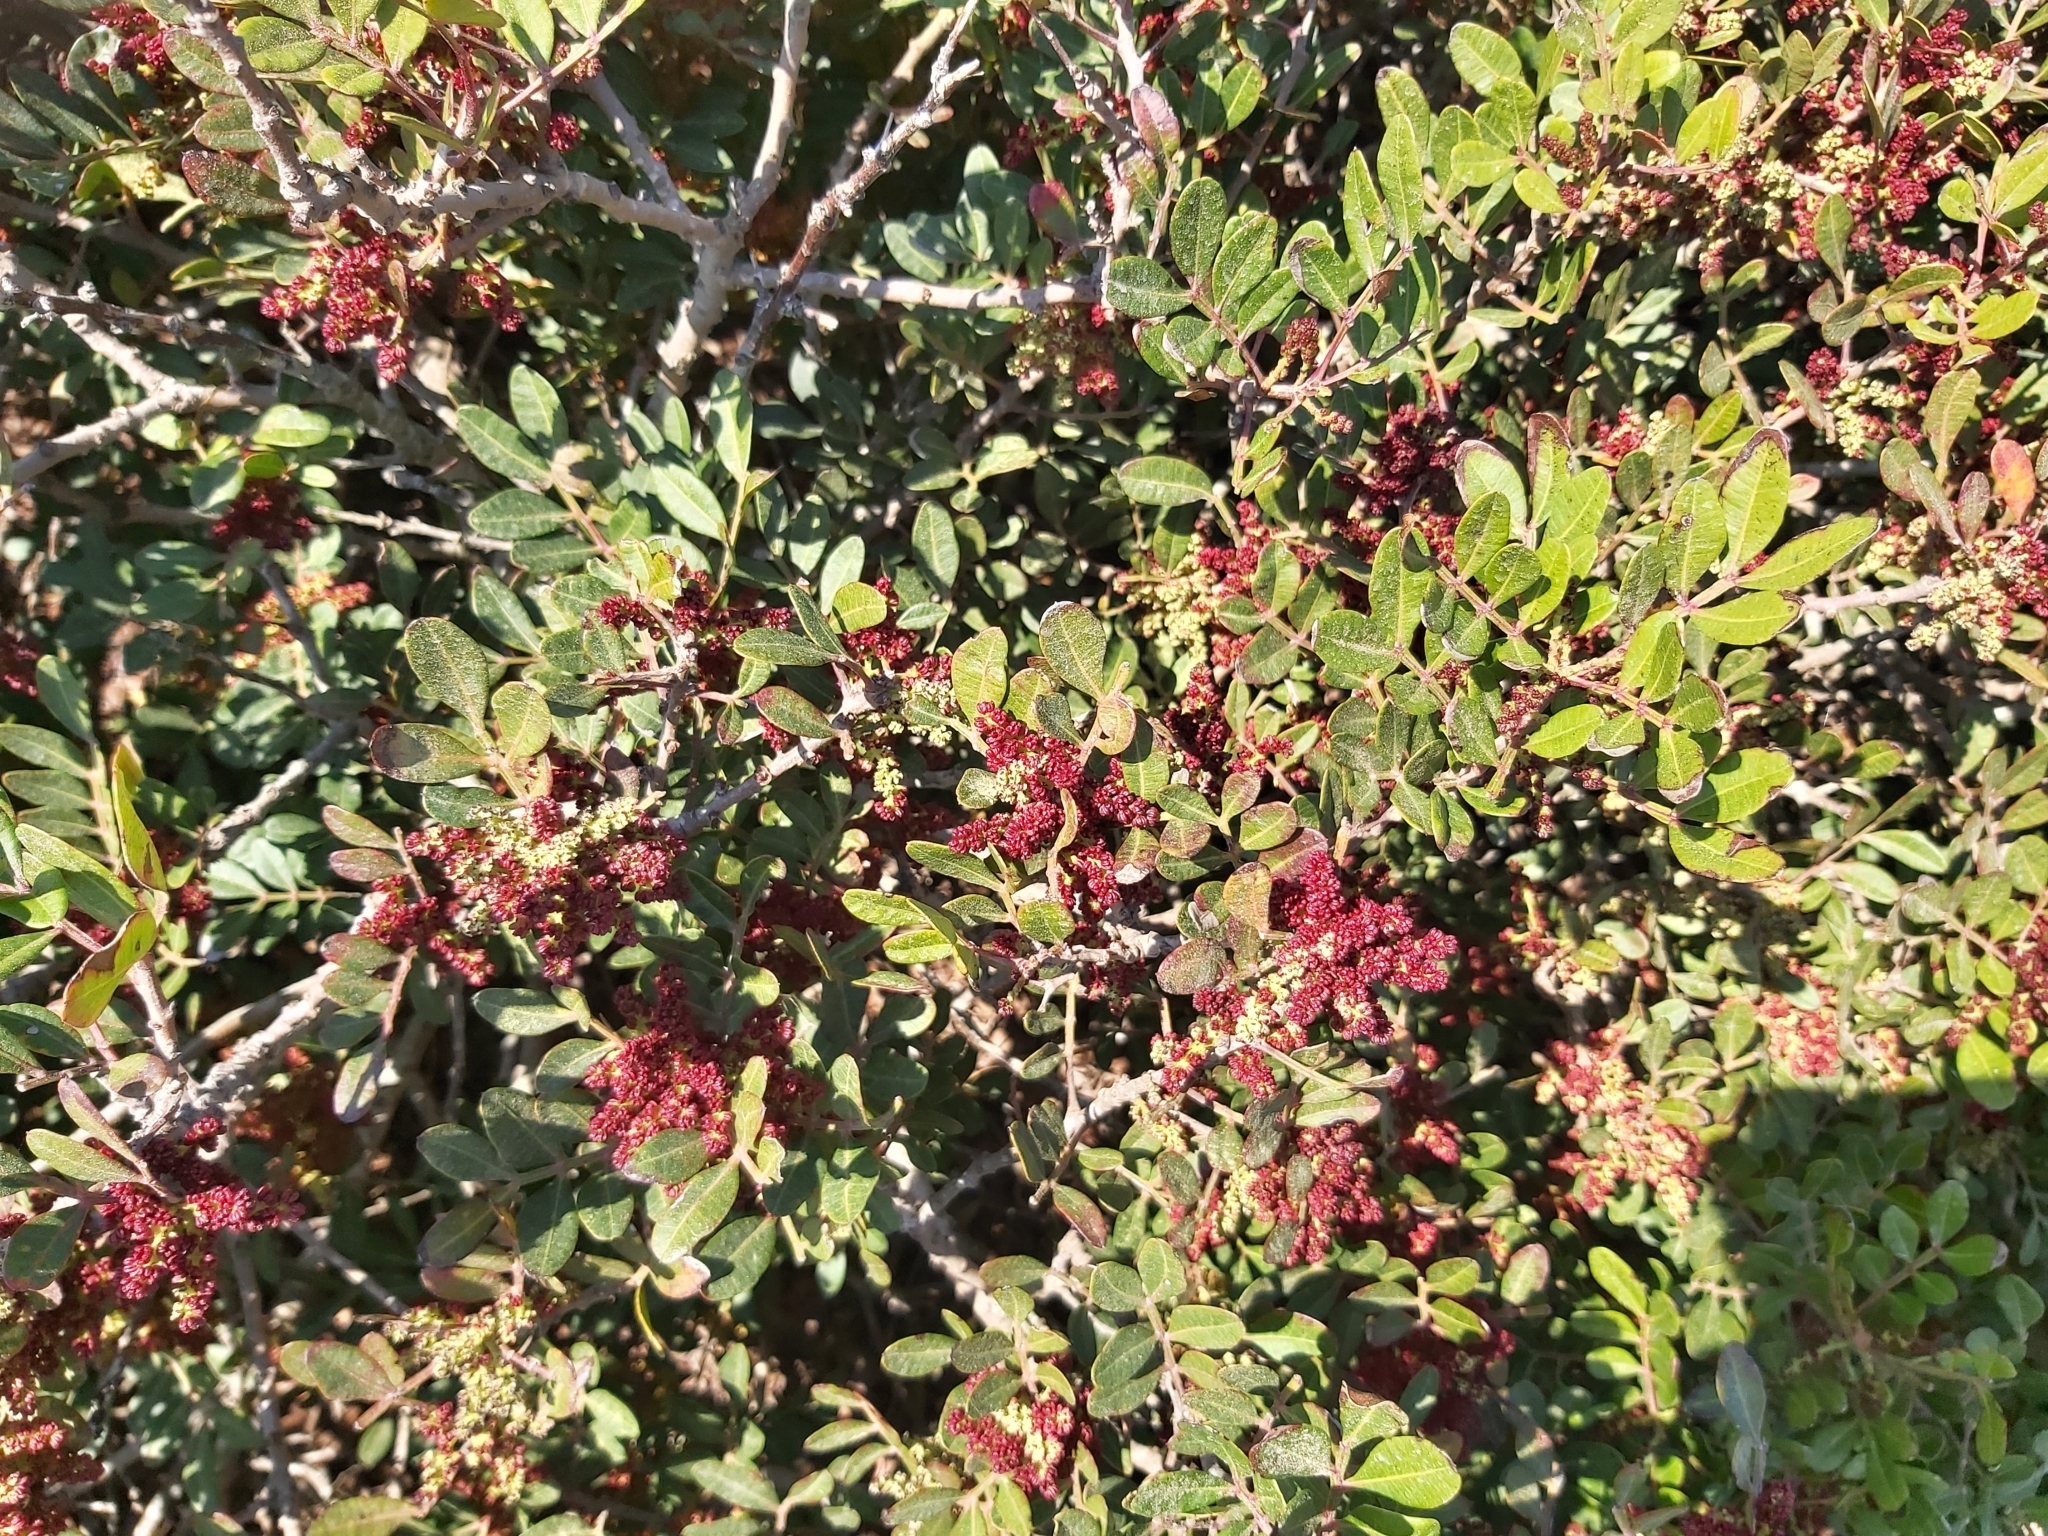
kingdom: Plantae
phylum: Tracheophyta
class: Magnoliopsida
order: Sapindales
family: Anacardiaceae
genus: Pistacia
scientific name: Pistacia lentiscus
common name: Lentisk
